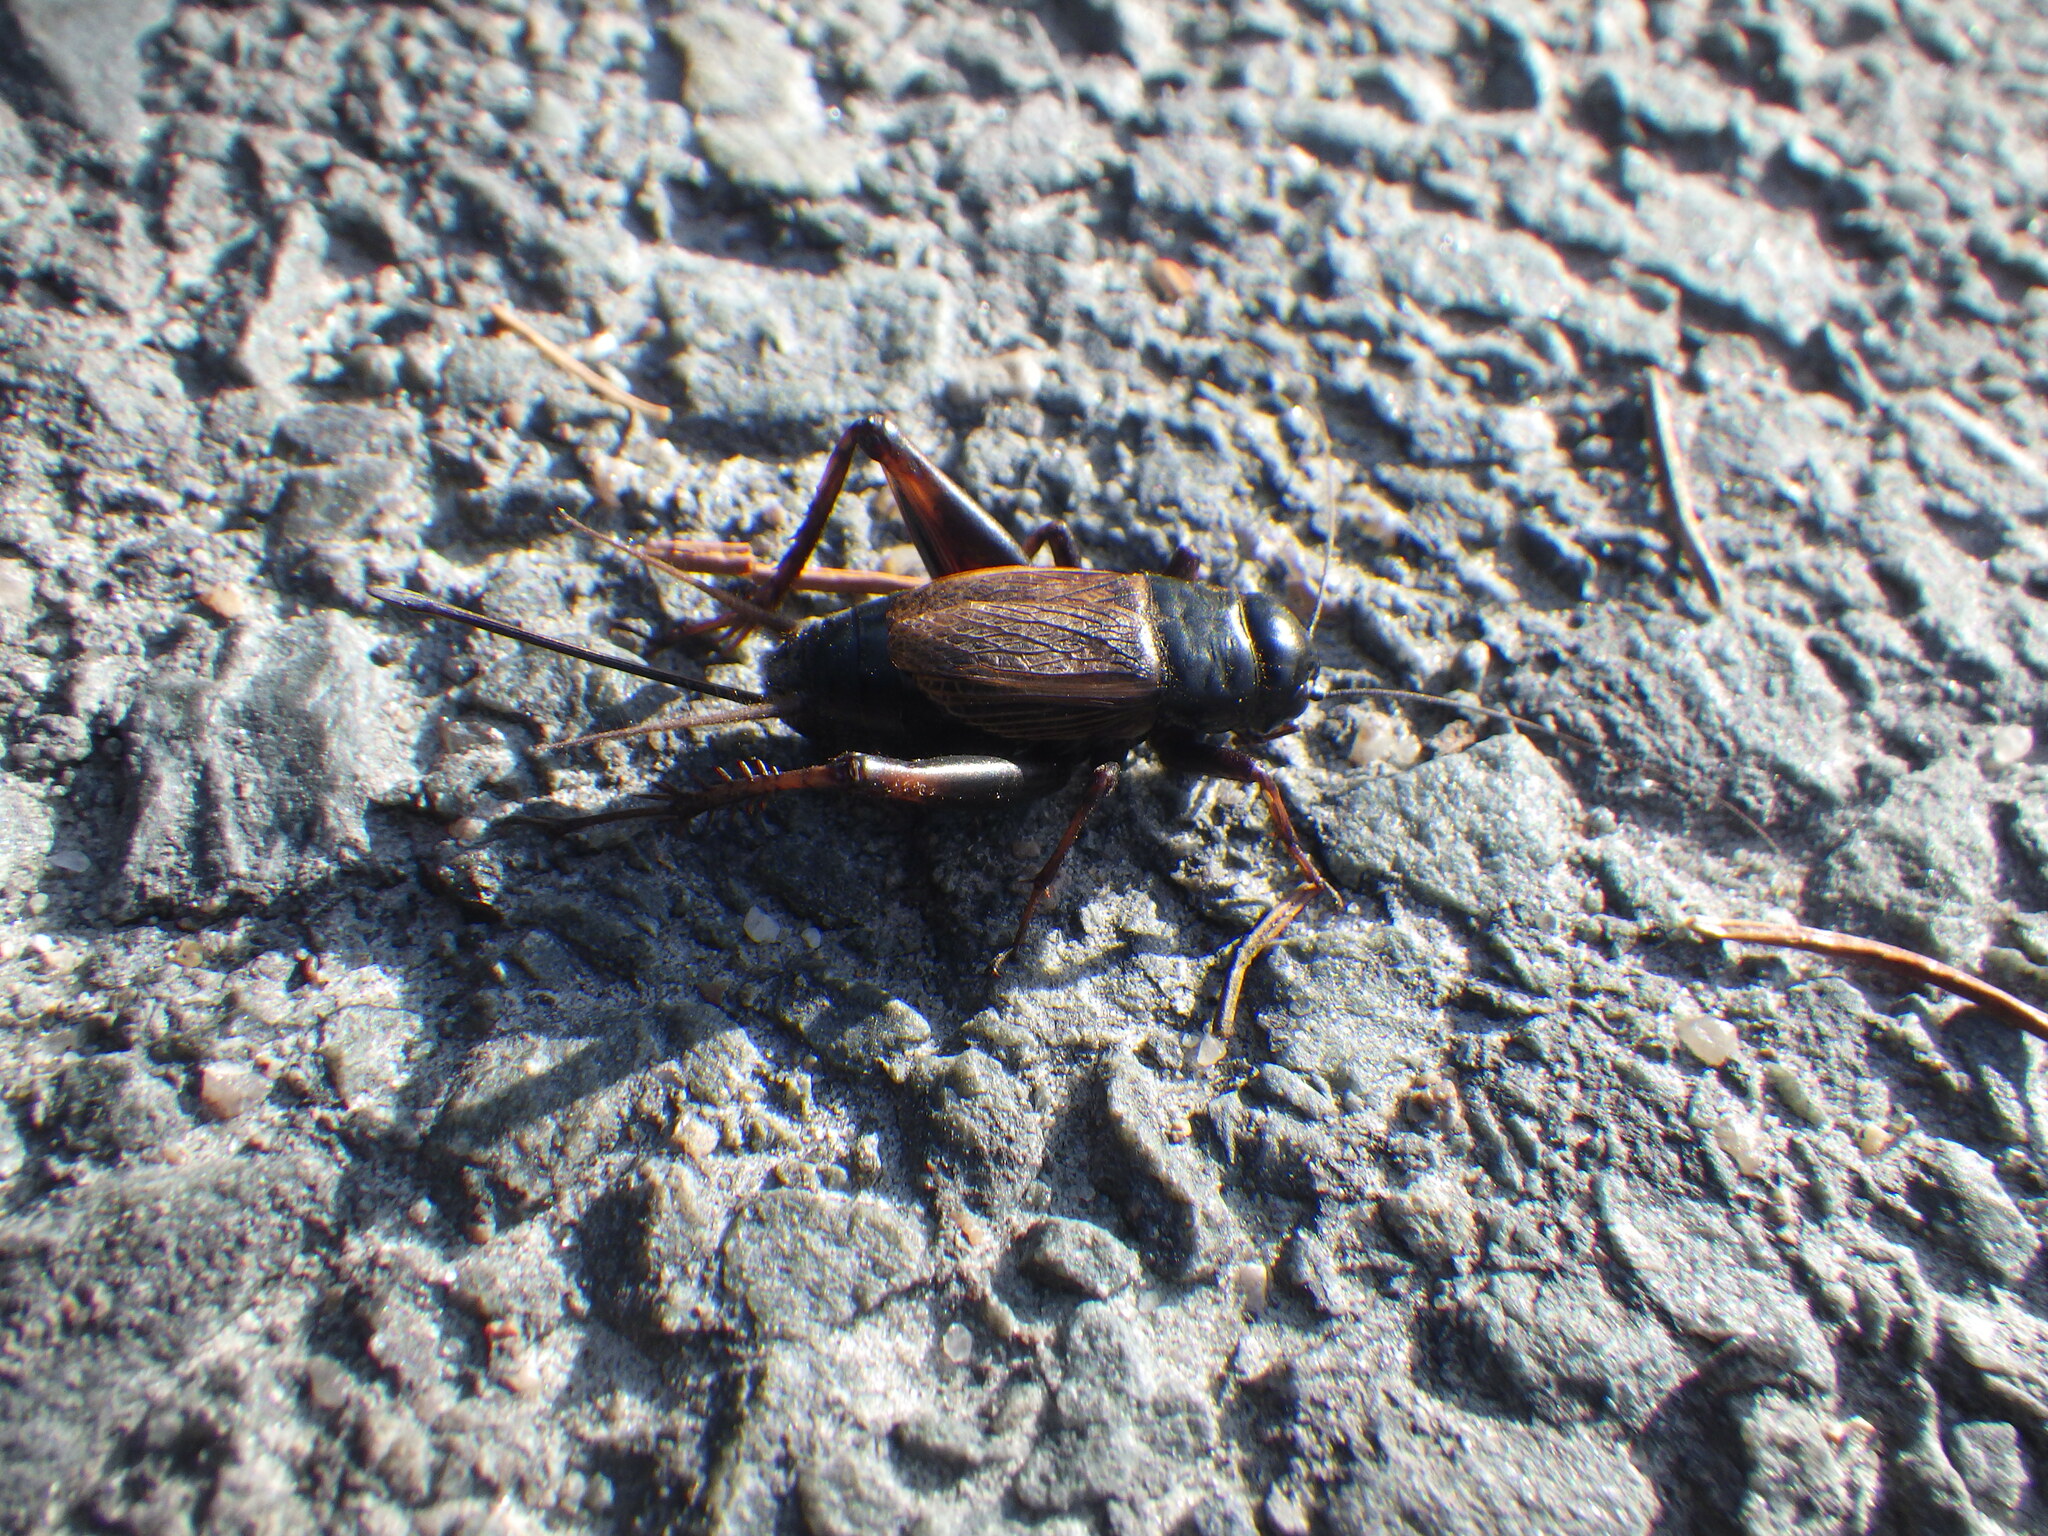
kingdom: Animalia
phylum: Arthropoda
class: Insecta
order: Orthoptera
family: Gryllidae
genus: Gryllus
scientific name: Gryllus pennsylvanicus
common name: Fall field cricket
